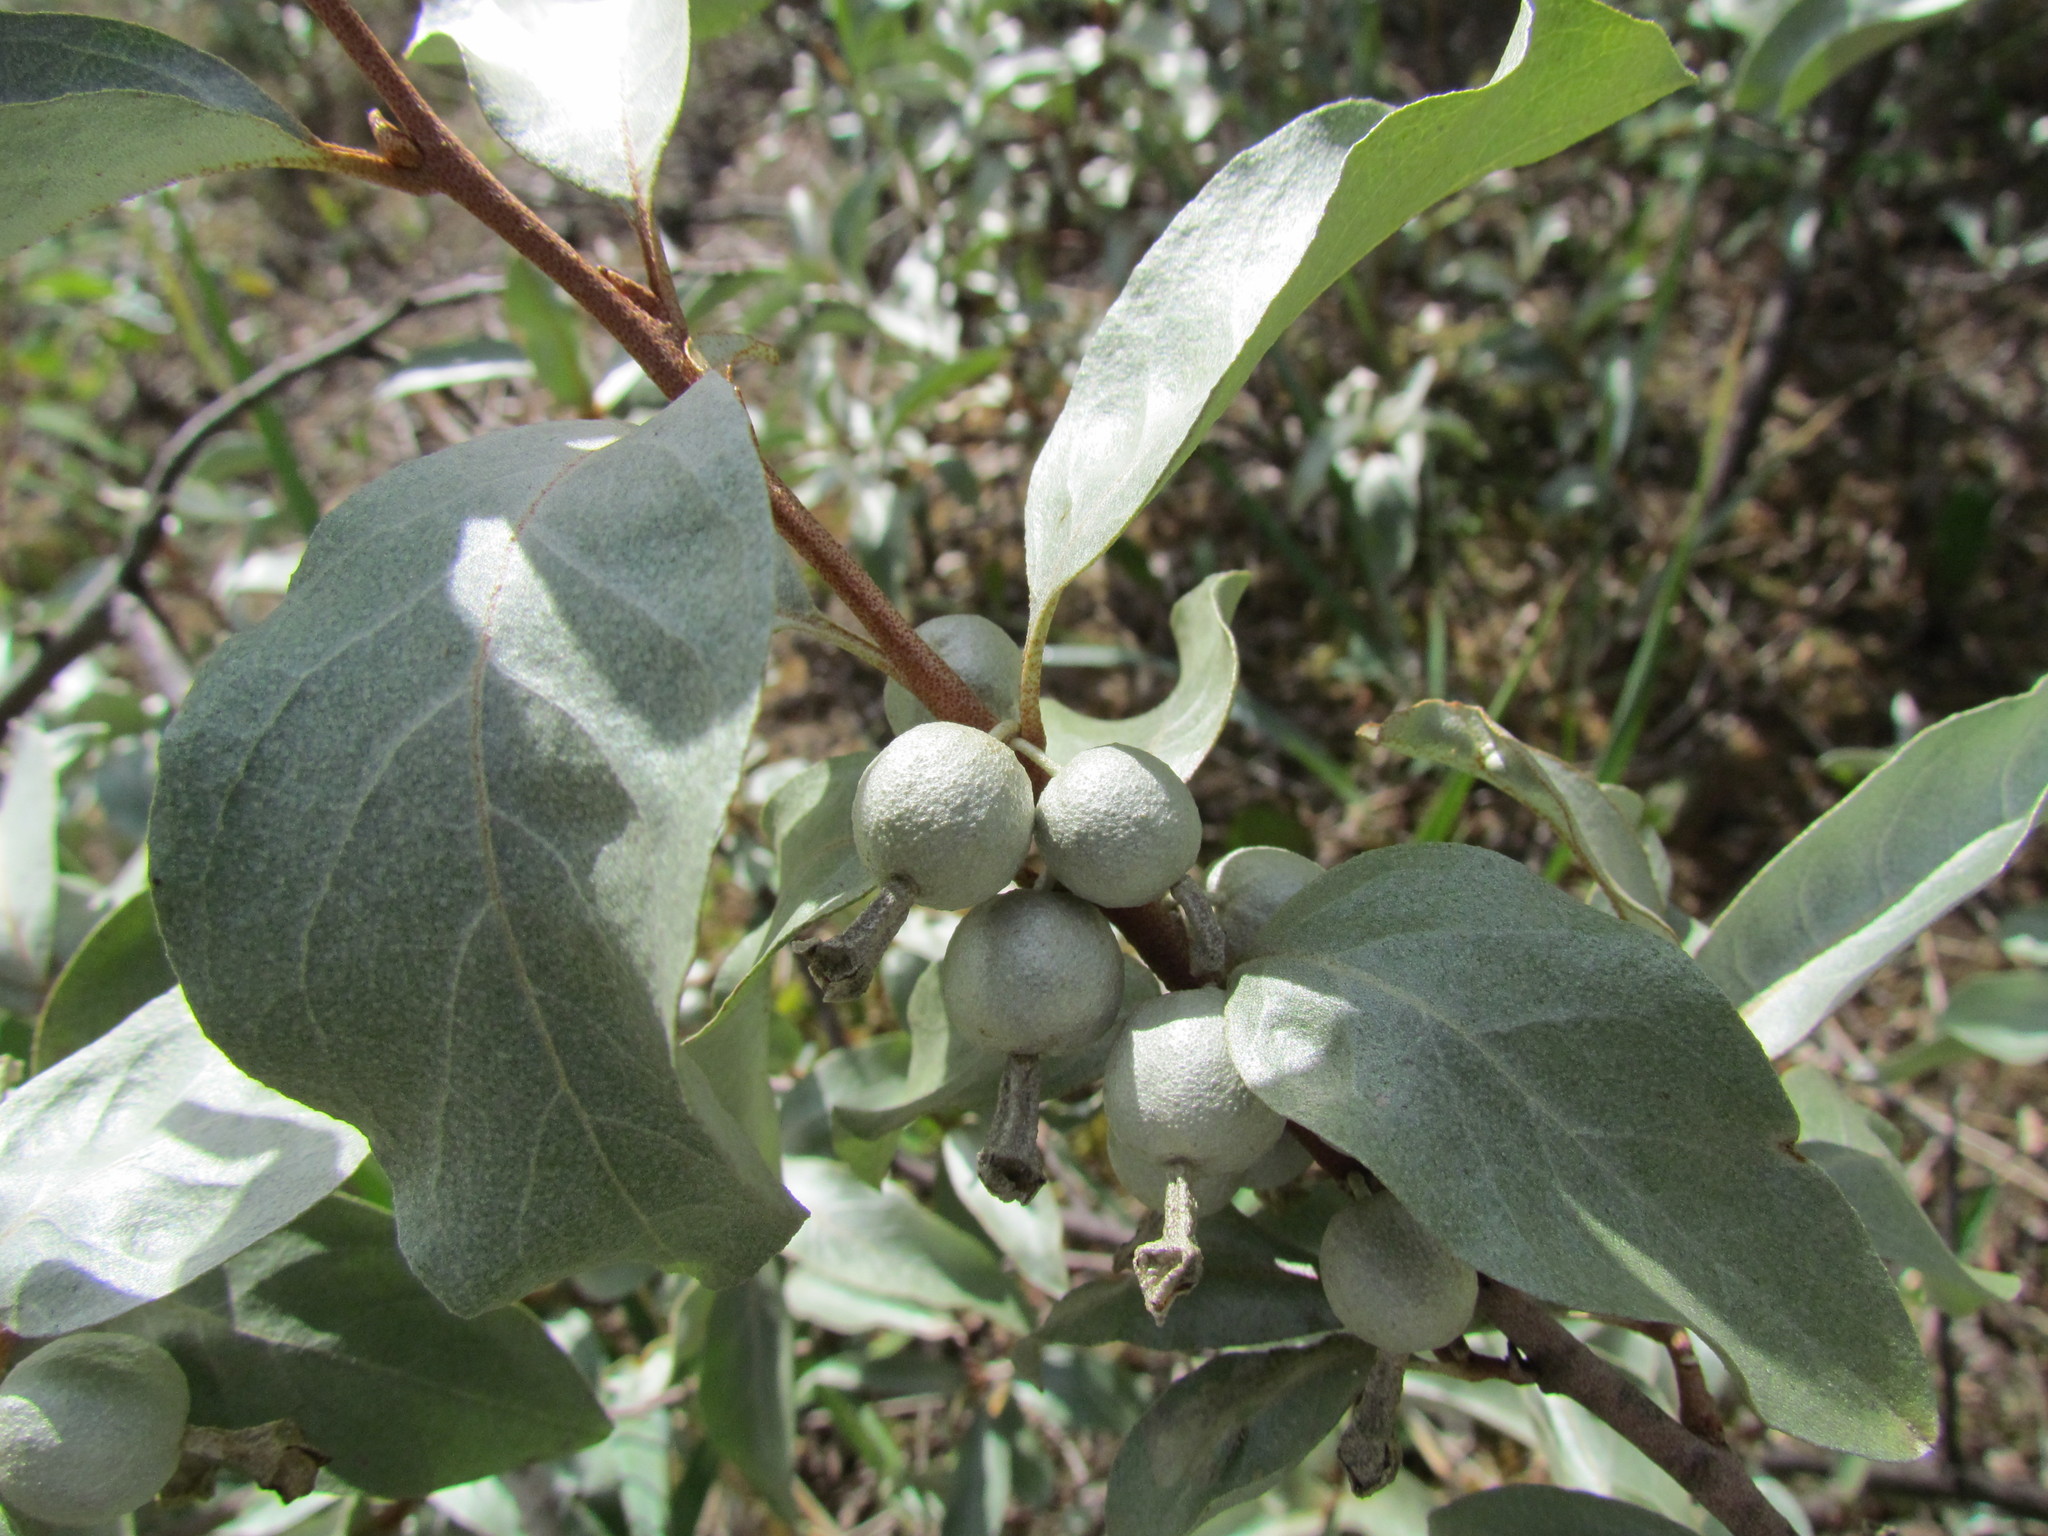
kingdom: Plantae
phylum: Tracheophyta
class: Magnoliopsida
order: Rosales
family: Elaeagnaceae
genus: Elaeagnus
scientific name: Elaeagnus commutata
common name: Silverberry
